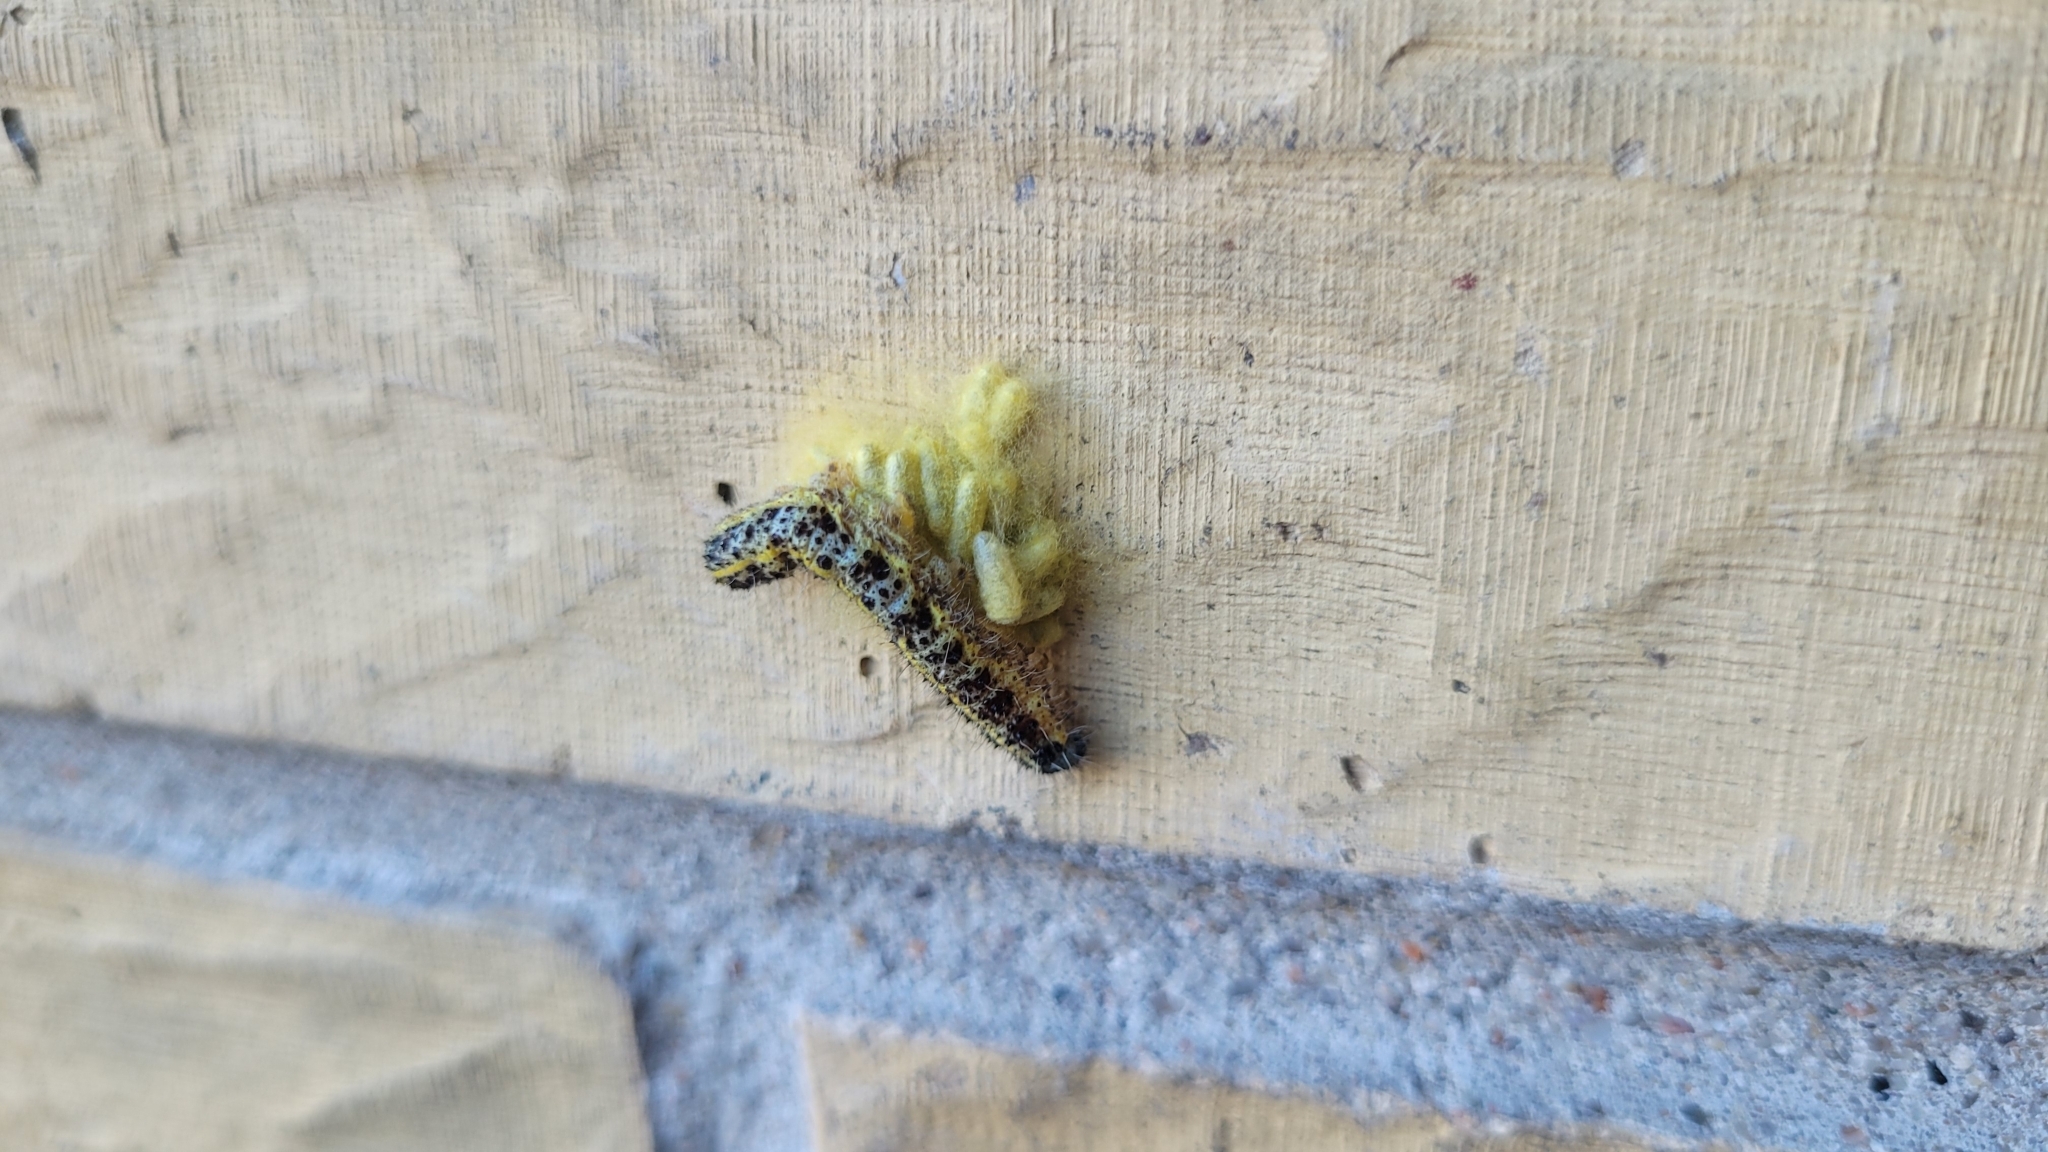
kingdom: Animalia
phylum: Arthropoda
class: Insecta
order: Lepidoptera
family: Pieridae
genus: Pieris
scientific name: Pieris brassicae
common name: Large white
